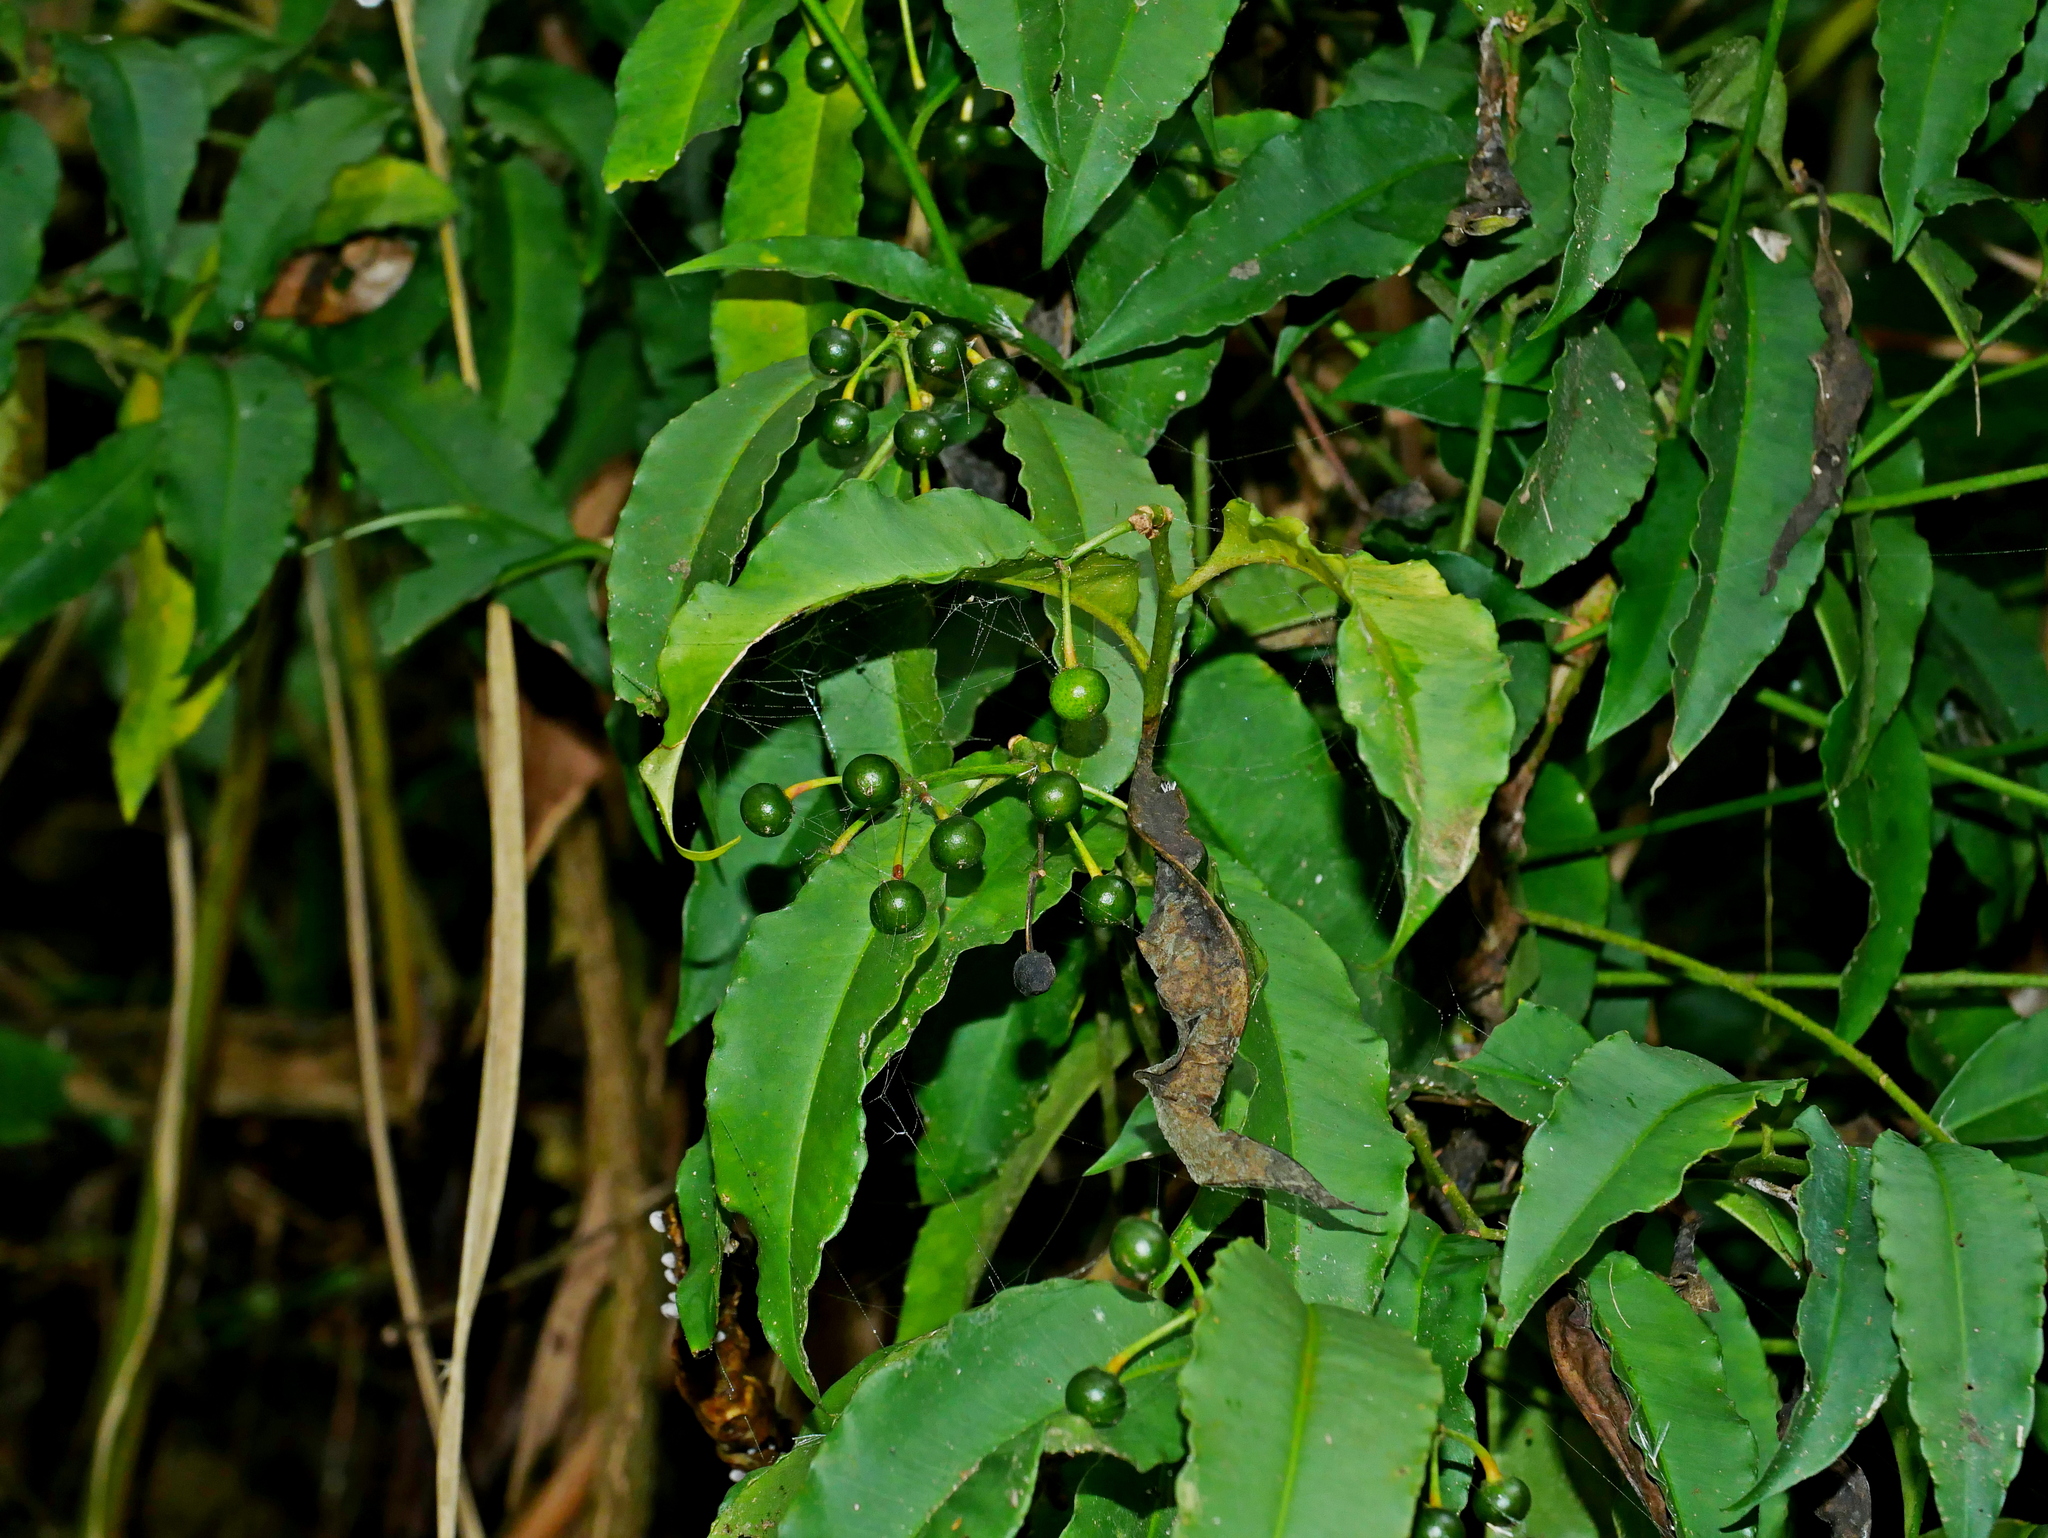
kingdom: Plantae
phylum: Tracheophyta
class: Magnoliopsida
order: Ericales
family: Primulaceae
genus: Ardisia
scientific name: Ardisia polysticta
